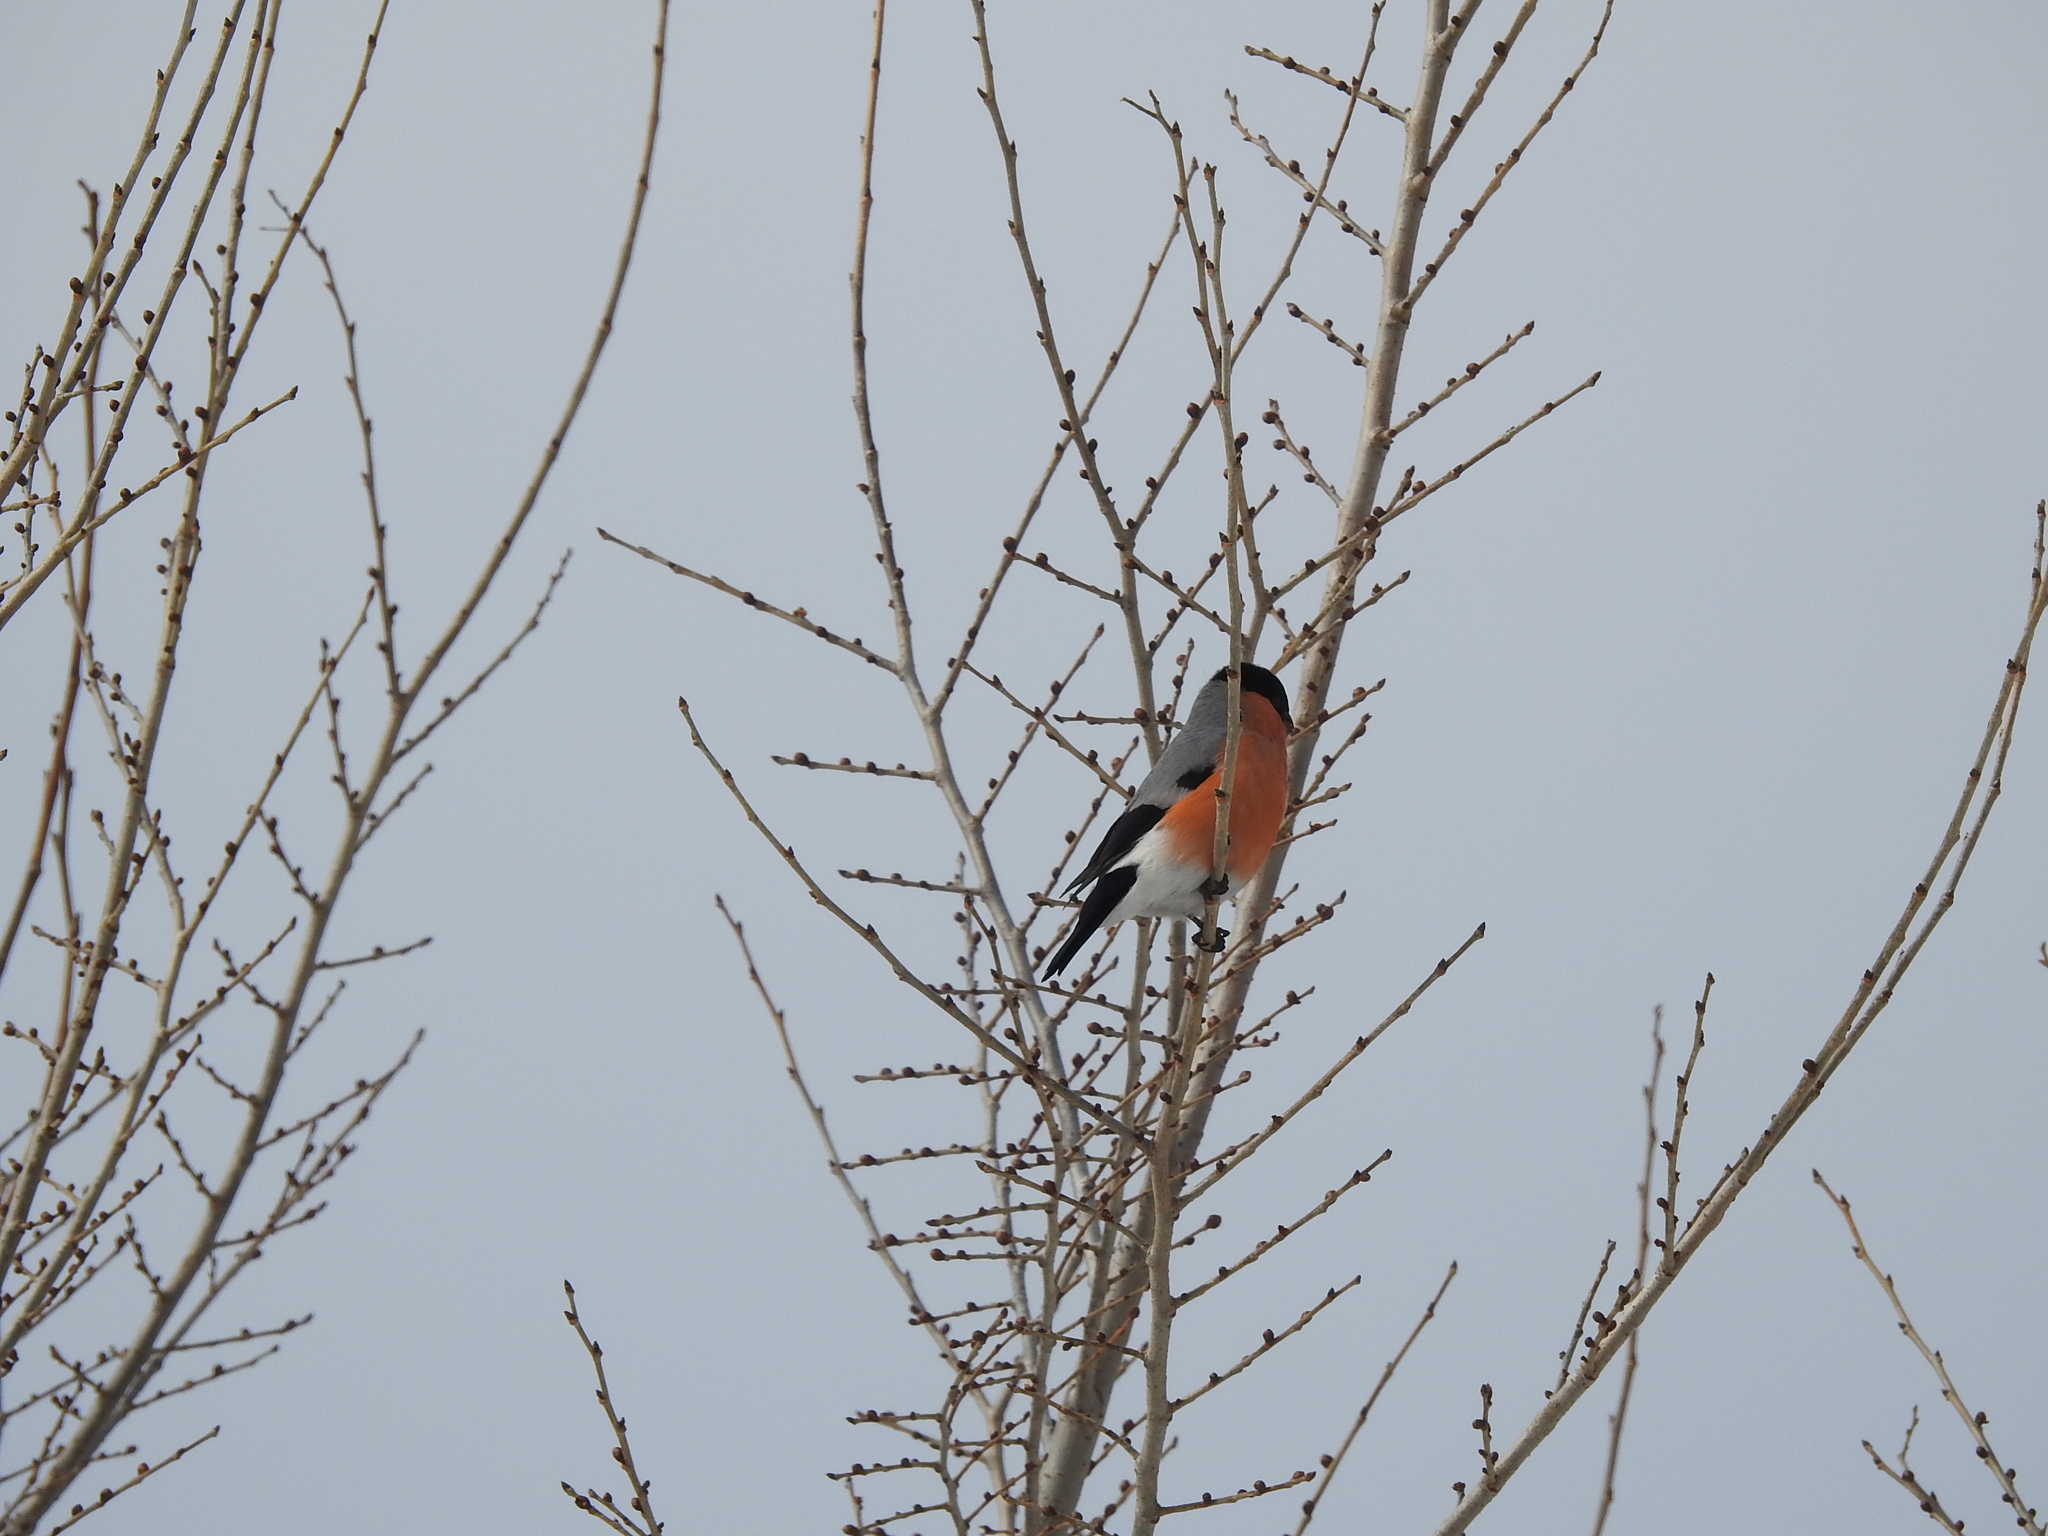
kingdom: Animalia
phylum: Chordata
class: Aves
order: Passeriformes
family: Fringillidae
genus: Pyrrhula
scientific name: Pyrrhula pyrrhula
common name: Eurasian bullfinch
